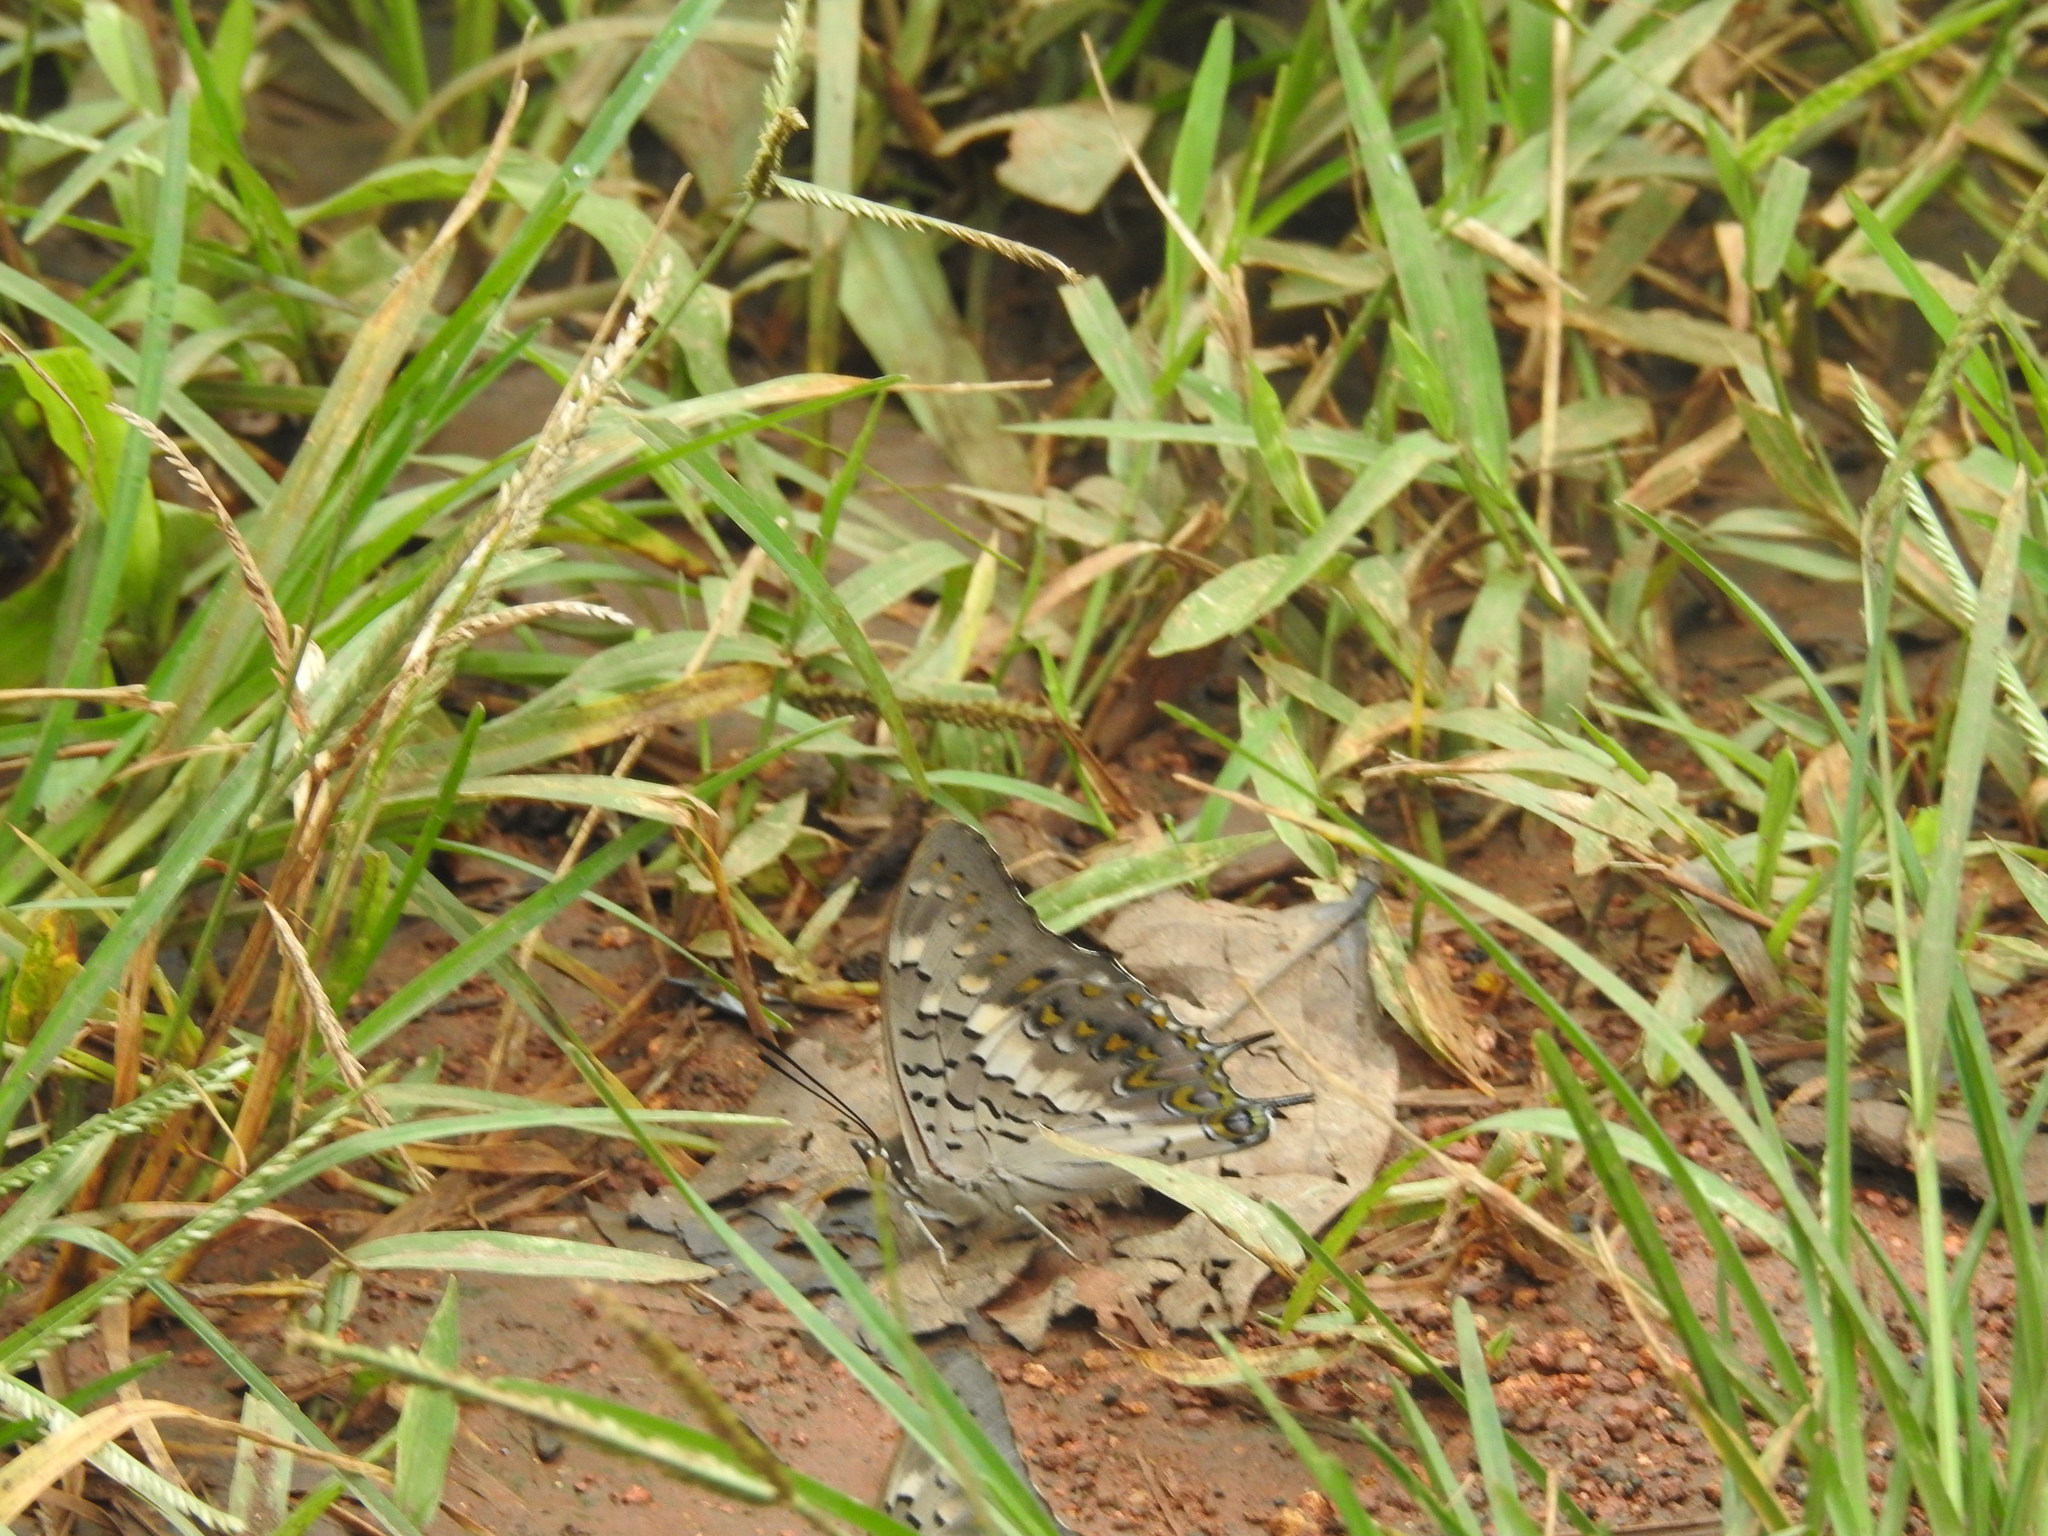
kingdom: Animalia
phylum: Arthropoda
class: Insecta
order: Lepidoptera
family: Nymphalidae
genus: Charaxes
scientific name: Charaxes solon
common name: Black rajah
